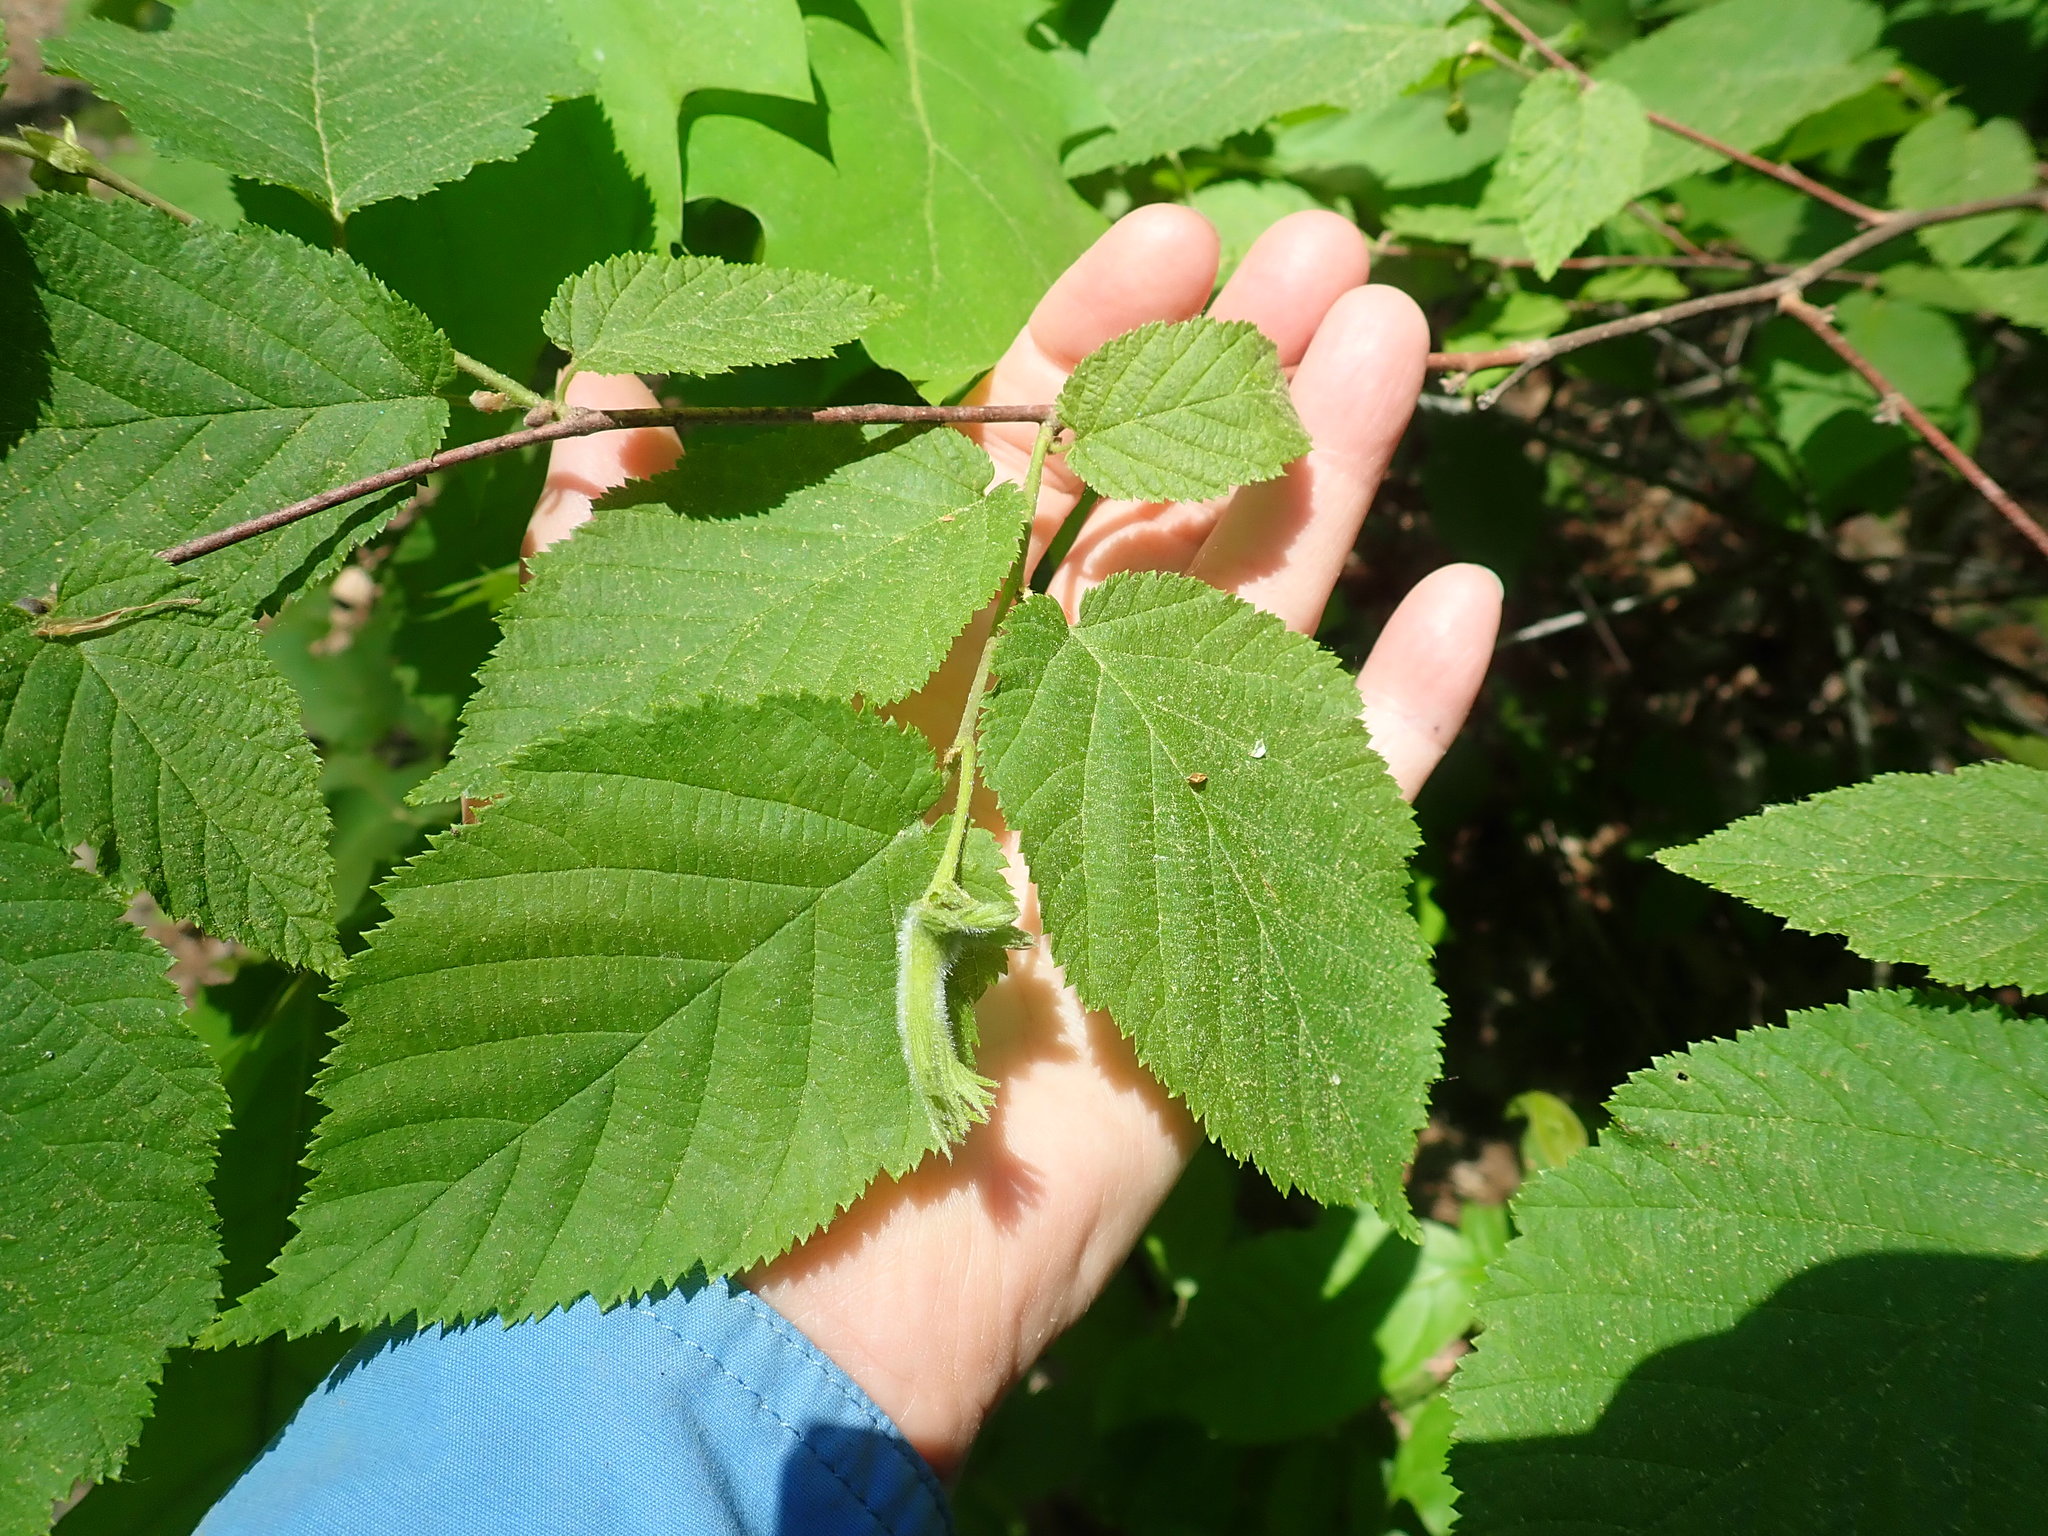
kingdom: Plantae
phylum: Tracheophyta
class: Magnoliopsida
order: Fagales
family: Betulaceae
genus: Corylus
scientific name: Corylus cornuta
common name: Beaked hazel
